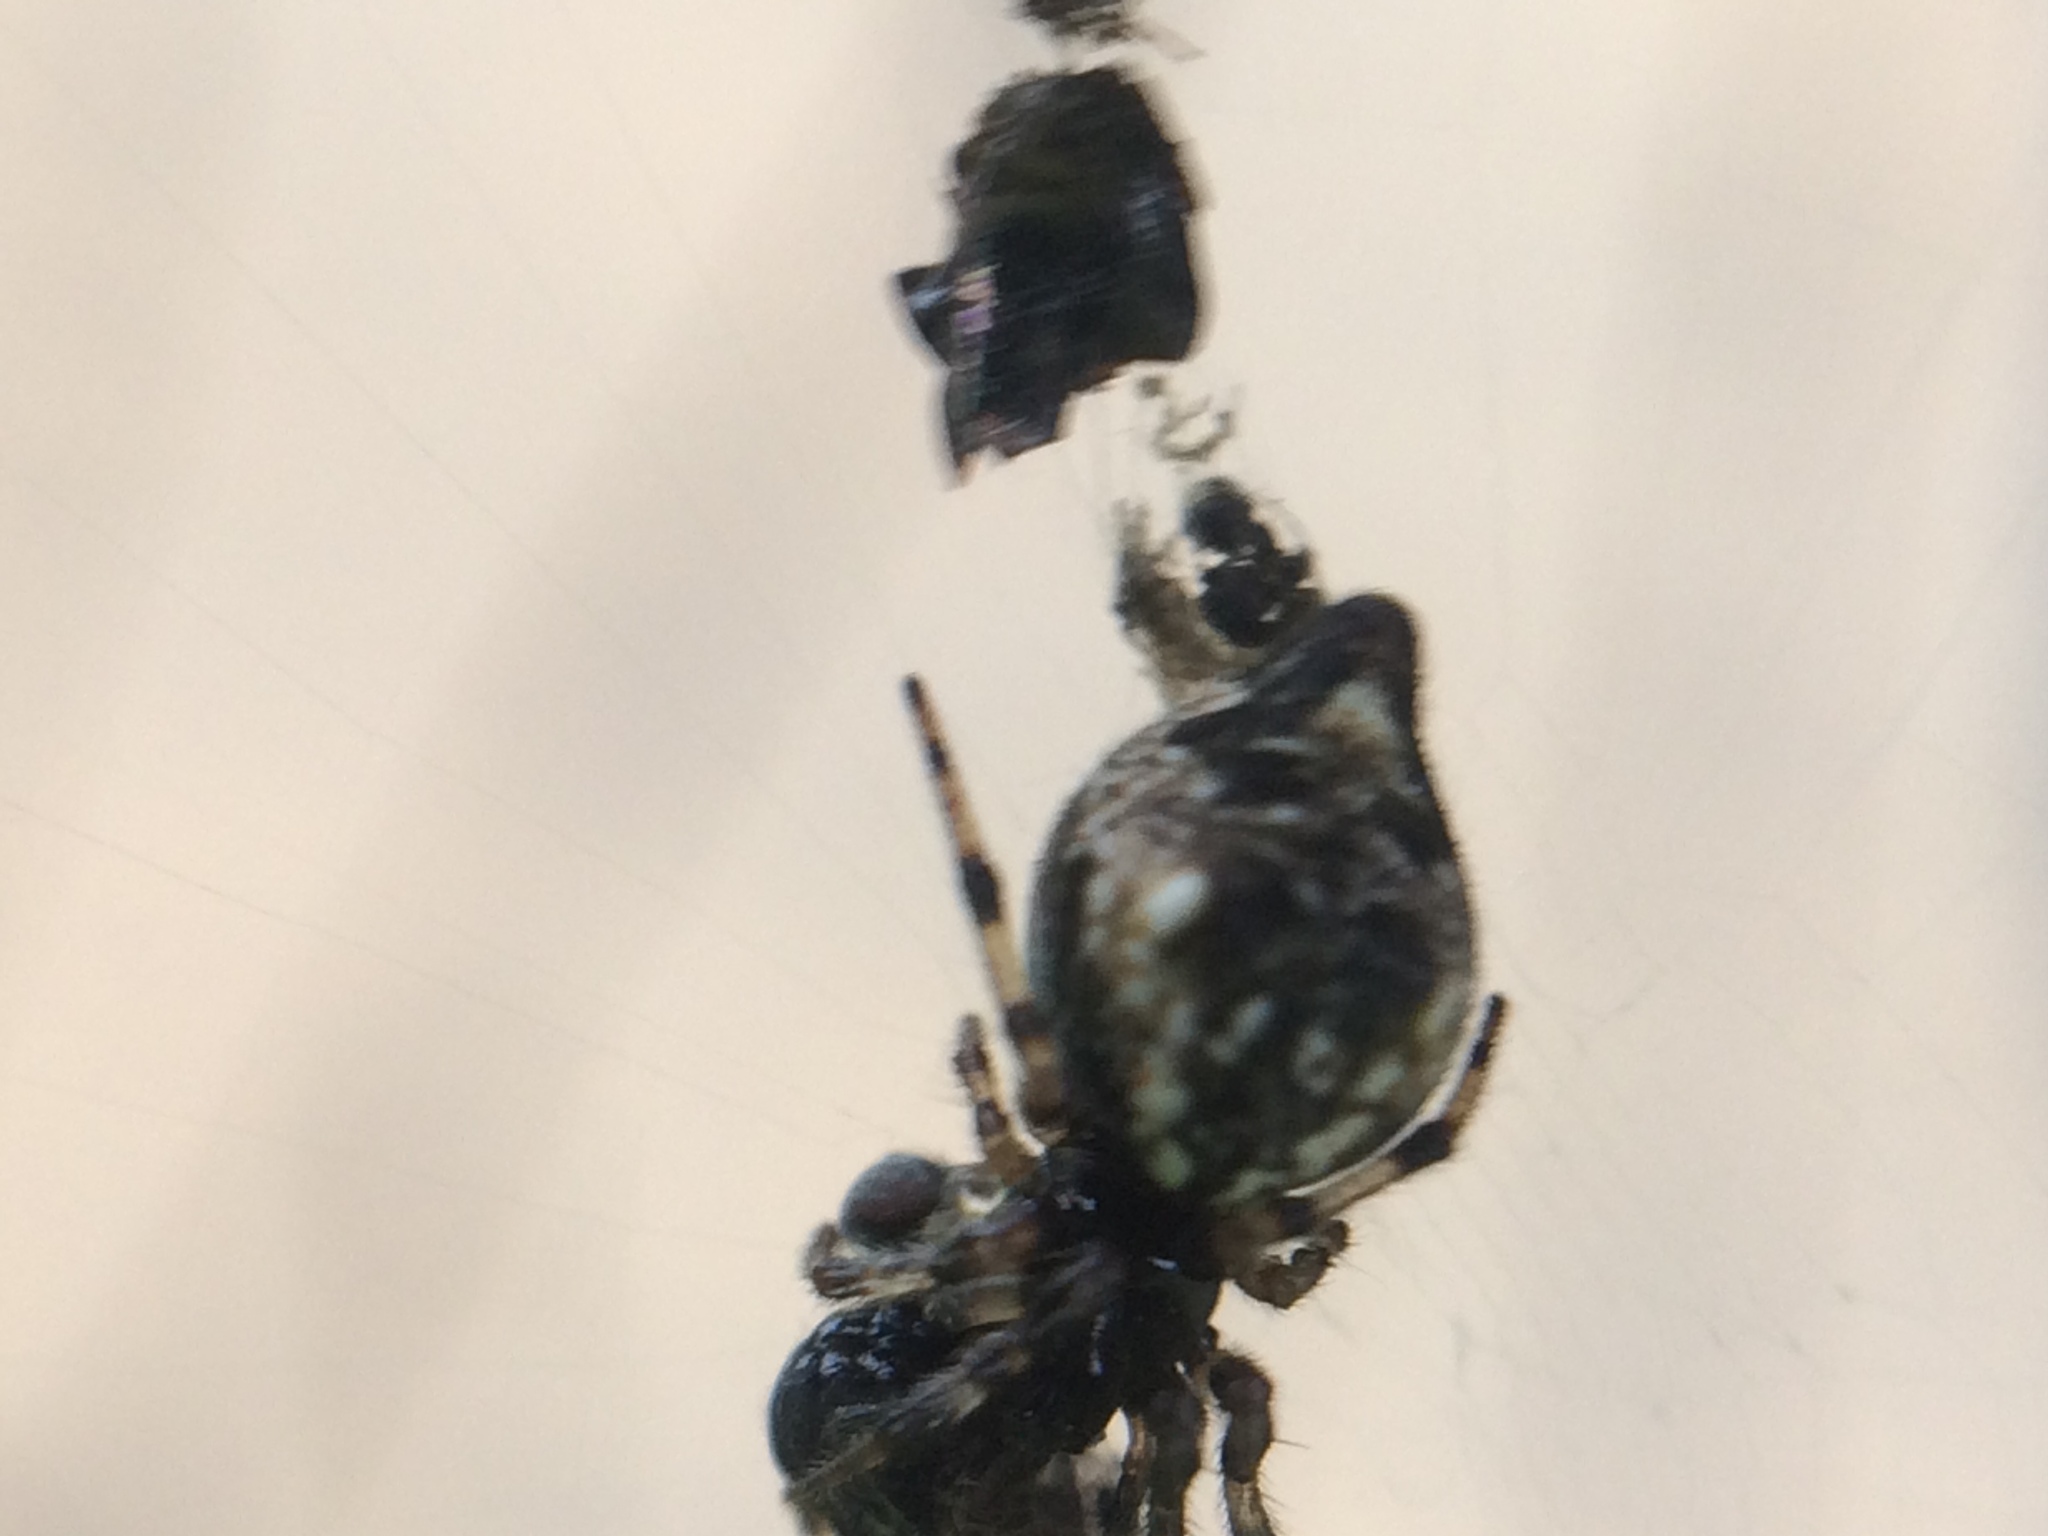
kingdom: Animalia
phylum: Arthropoda
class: Arachnida
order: Araneae
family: Araneidae
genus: Cyclosa
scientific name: Cyclosa turbinata
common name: Orb weavers
